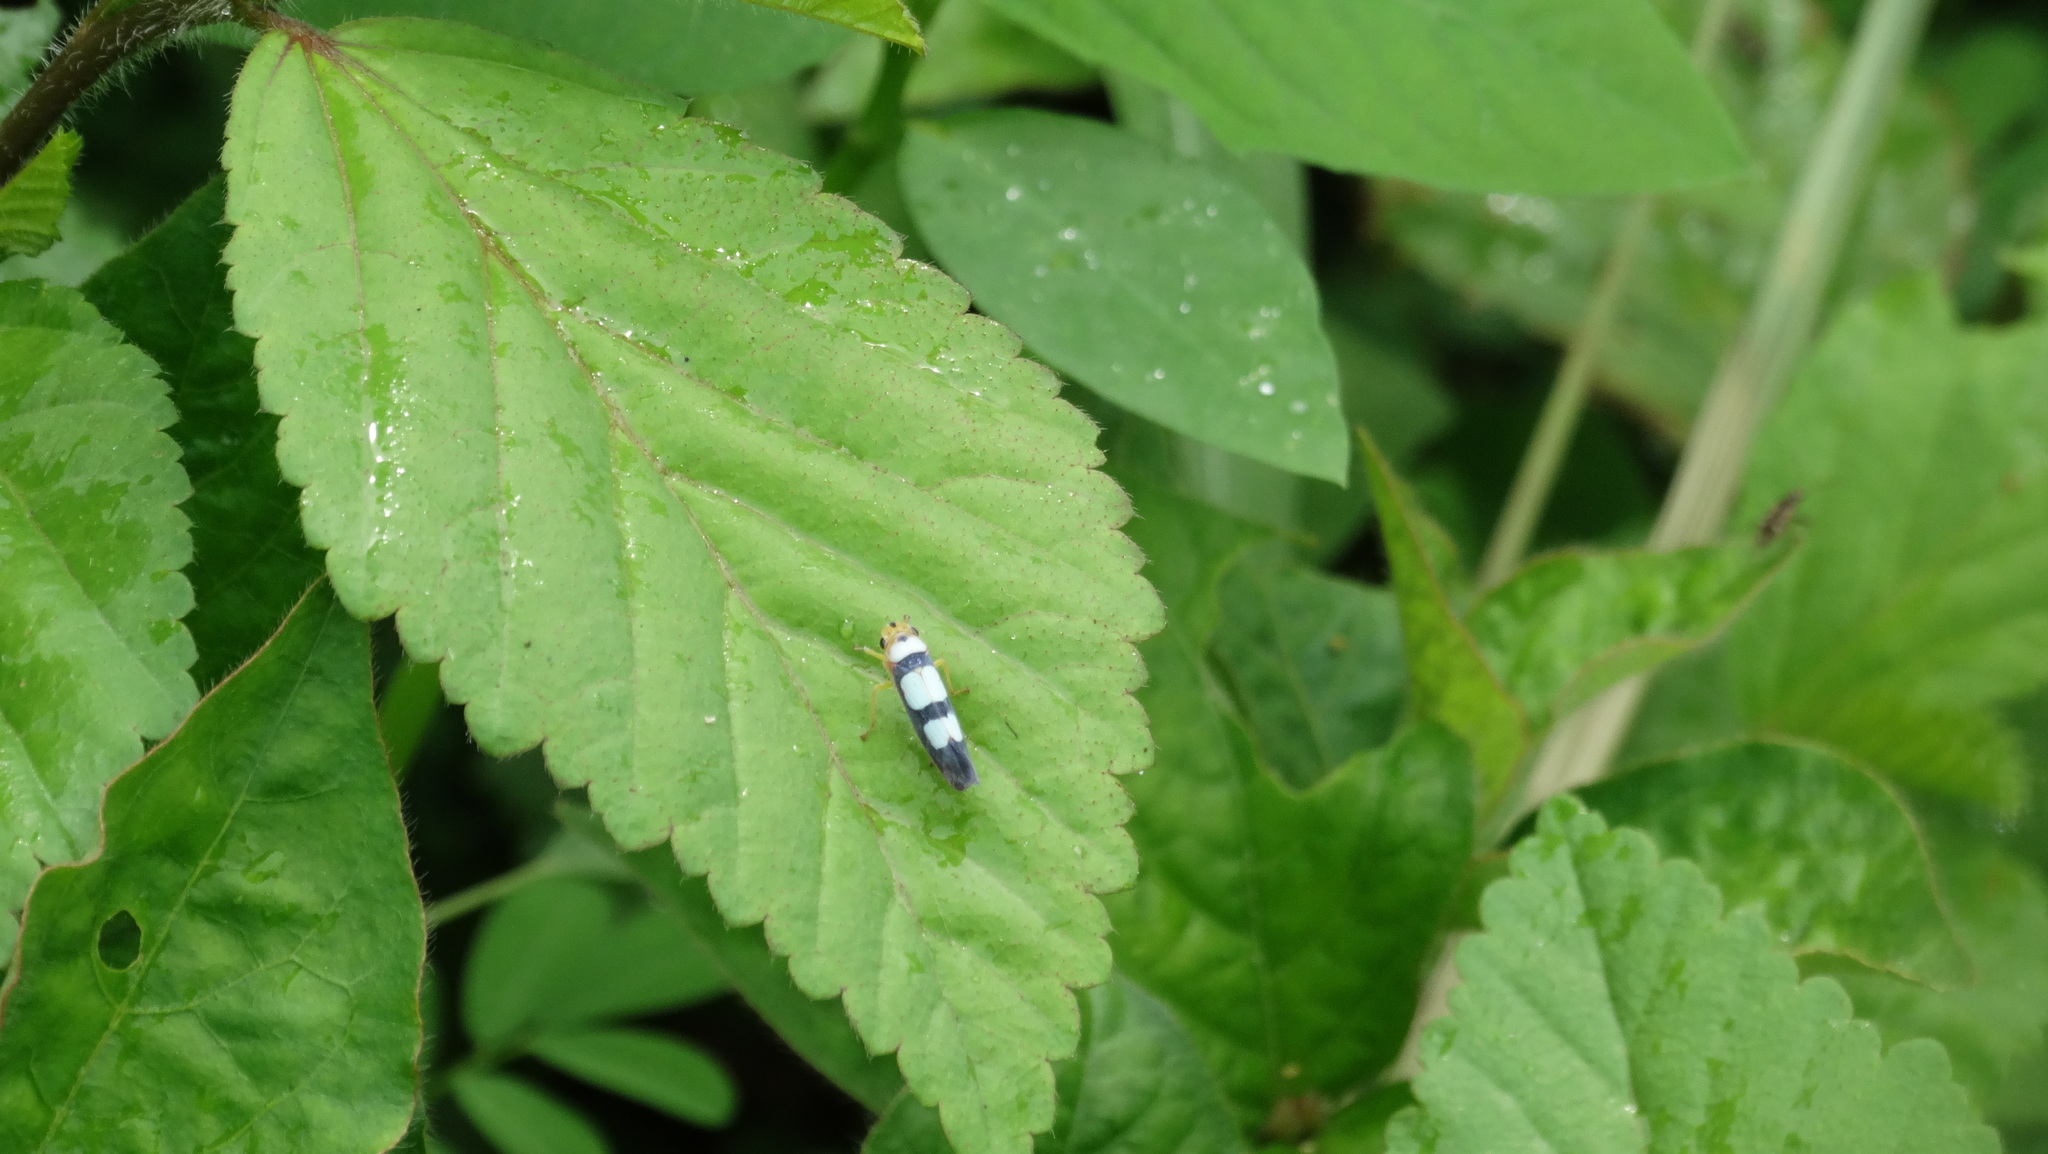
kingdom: Animalia
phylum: Arthropoda
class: Insecta
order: Hemiptera
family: Cicadellidae
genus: Tettisama
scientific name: Tettisama bisellata
